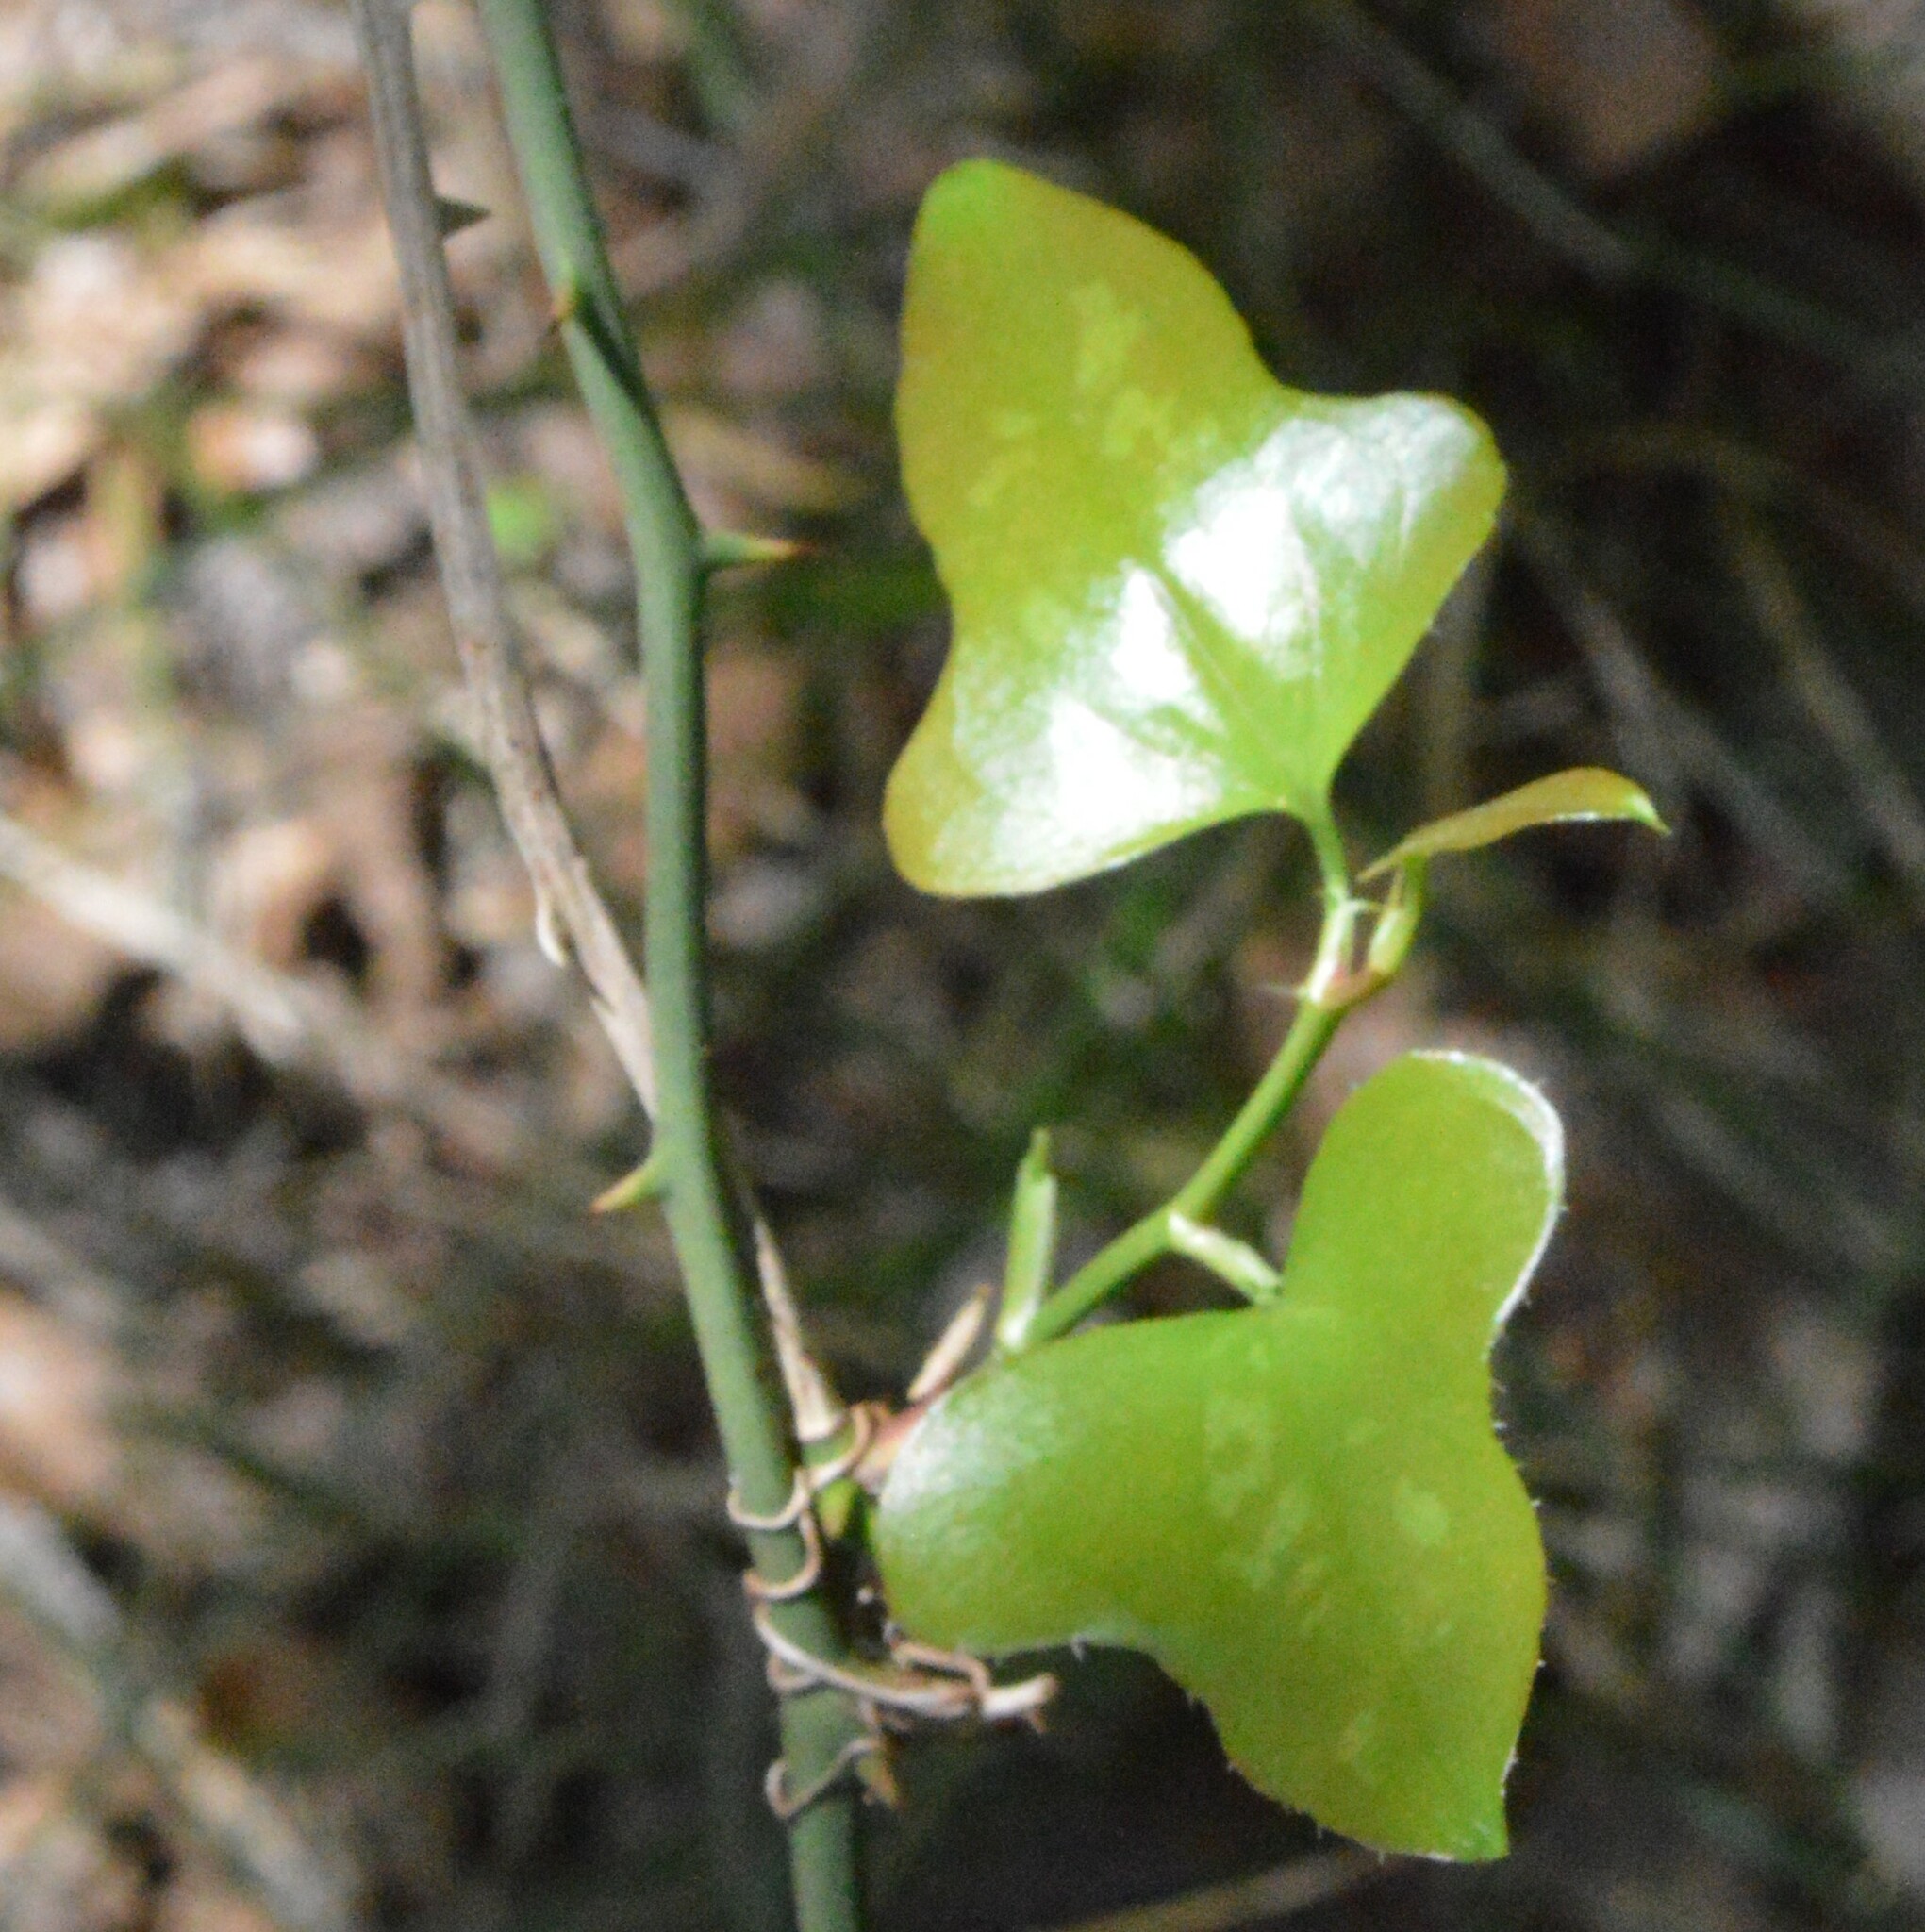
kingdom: Plantae
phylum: Tracheophyta
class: Liliopsida
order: Liliales
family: Smilacaceae
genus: Smilax
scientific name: Smilax bona-nox
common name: Catbrier
